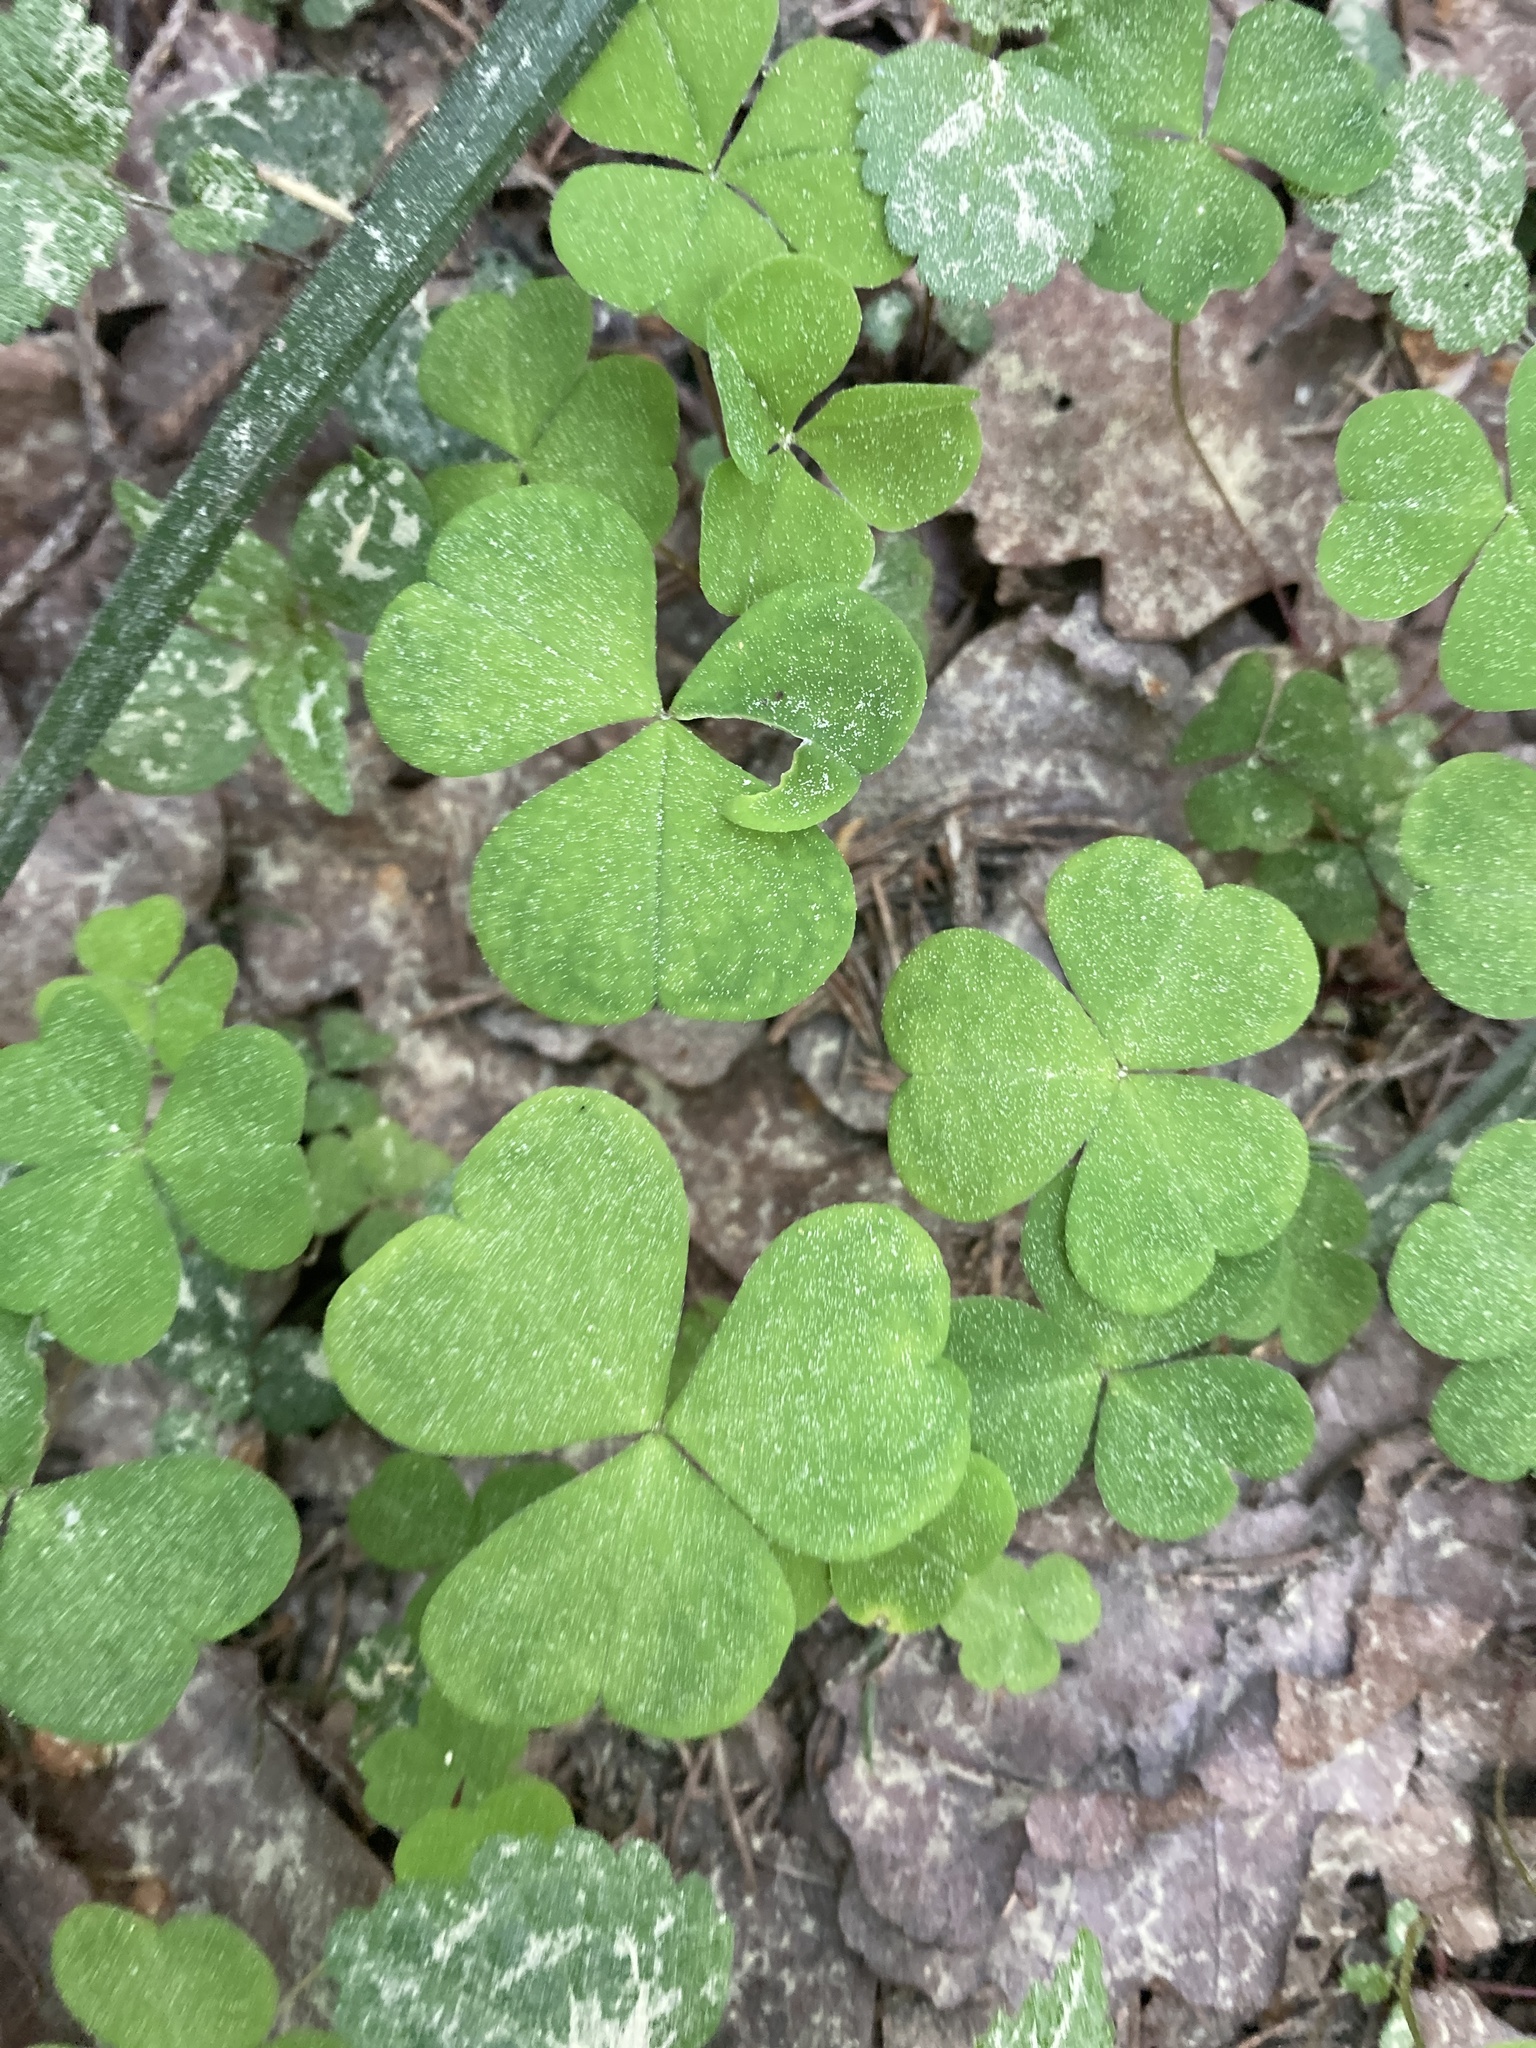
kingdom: Plantae
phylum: Tracheophyta
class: Magnoliopsida
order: Oxalidales
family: Oxalidaceae
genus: Oxalis
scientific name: Oxalis acetosella
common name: Wood-sorrel
